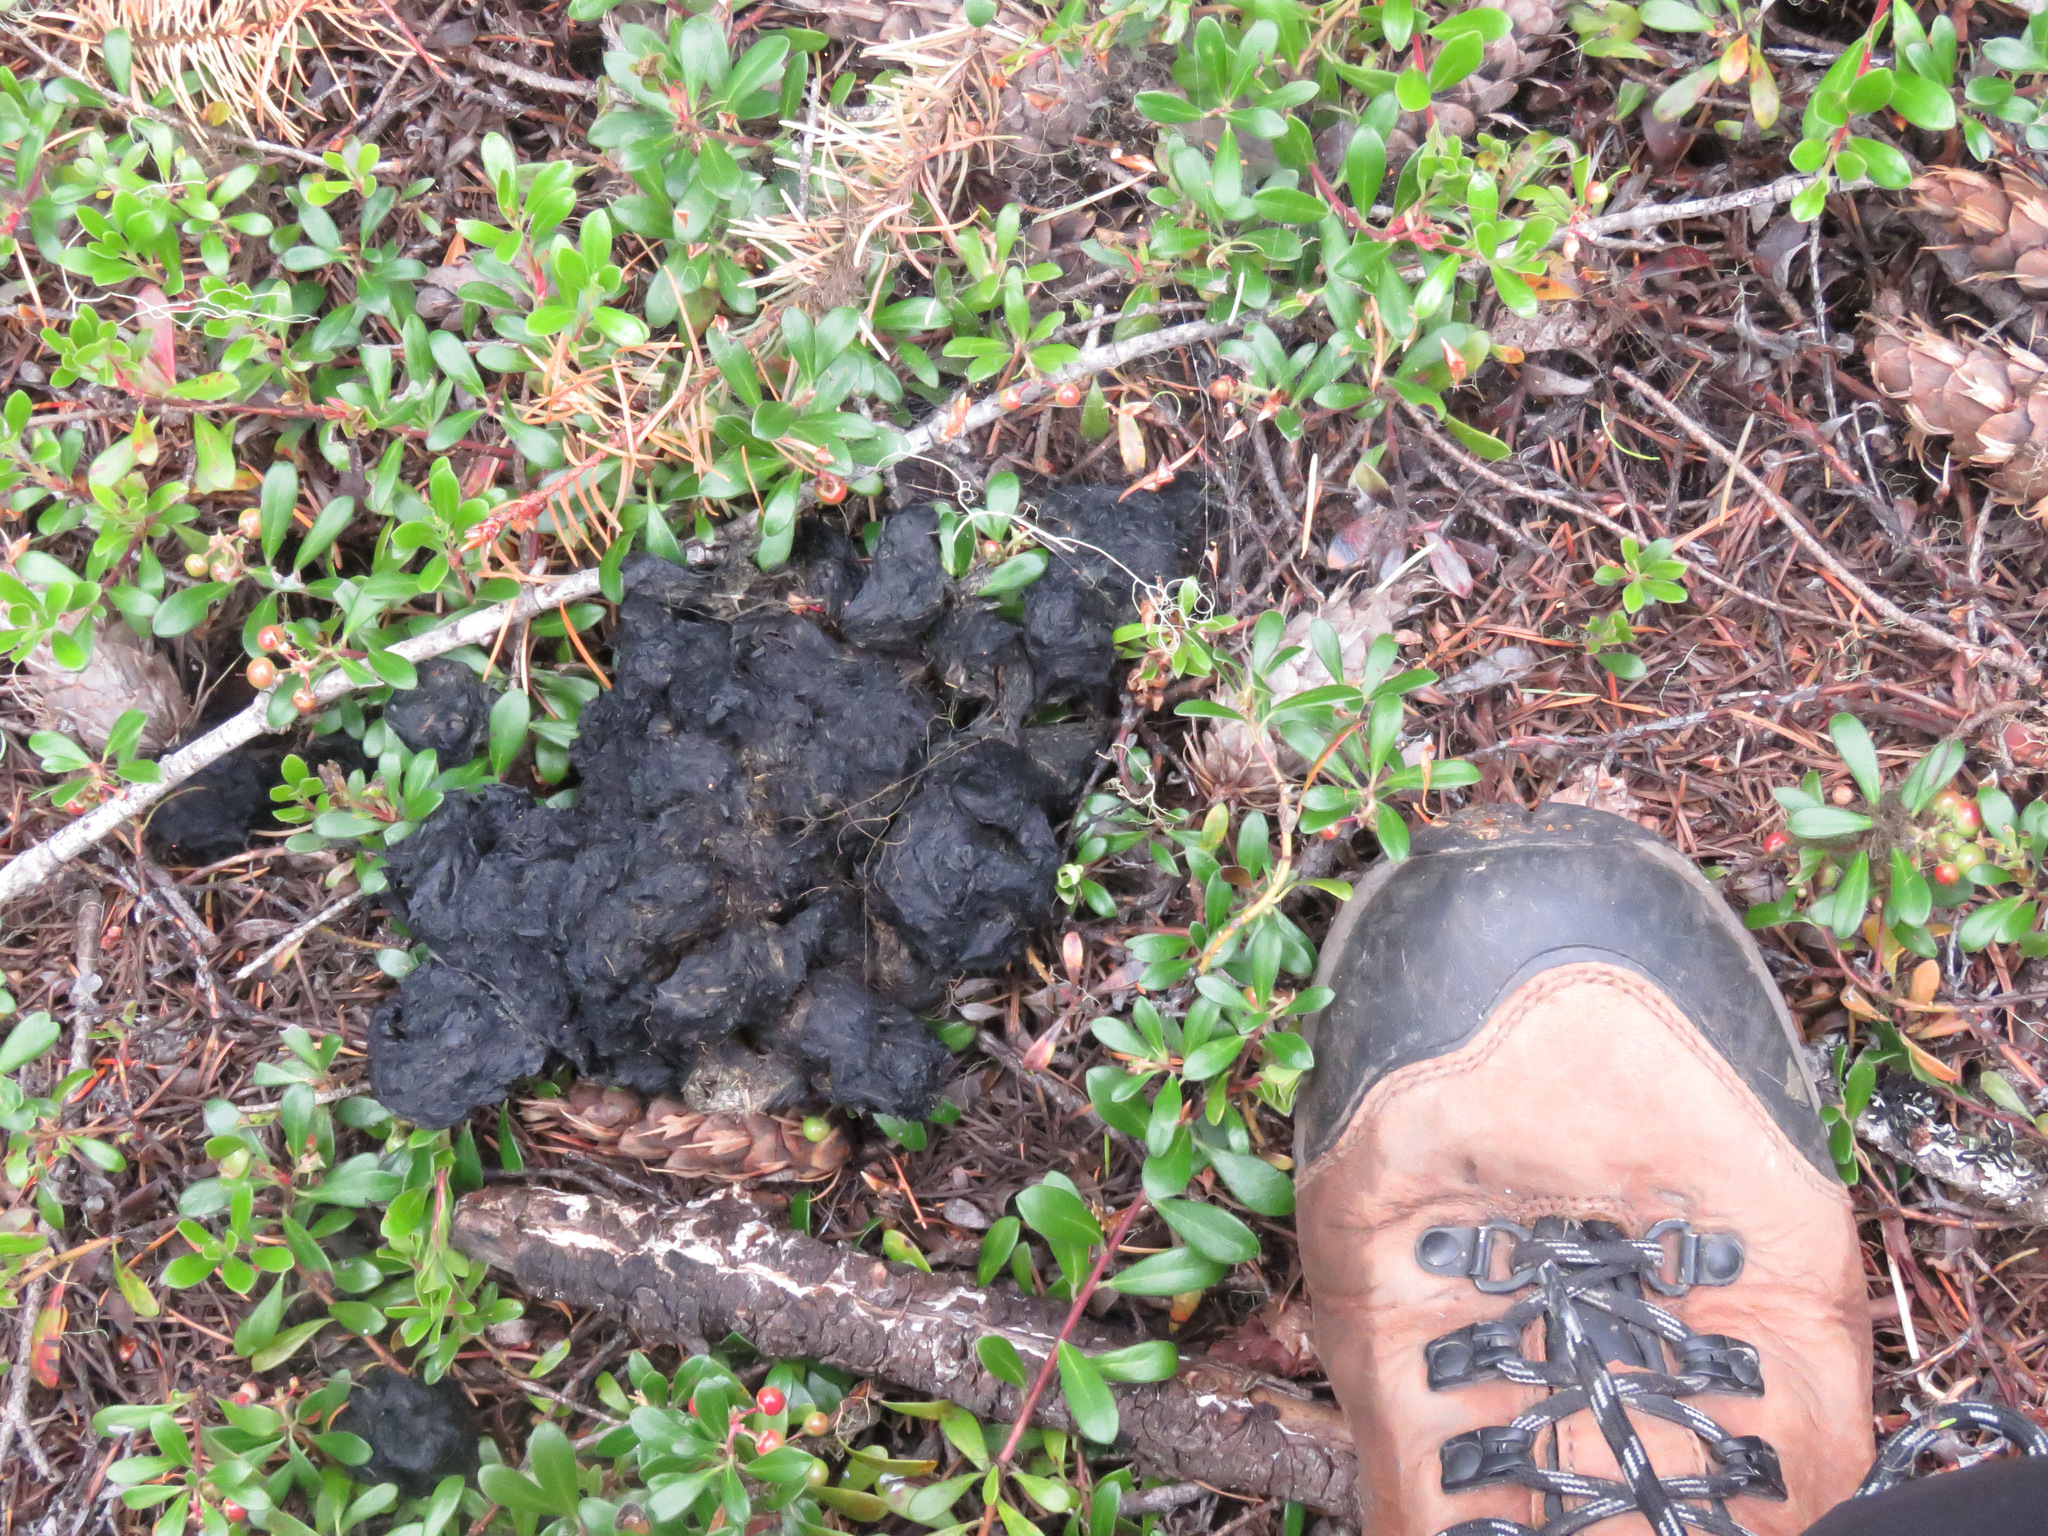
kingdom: Animalia
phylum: Chordata
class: Mammalia
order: Carnivora
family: Ursidae
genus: Ursus
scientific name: Ursus americanus
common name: American black bear
